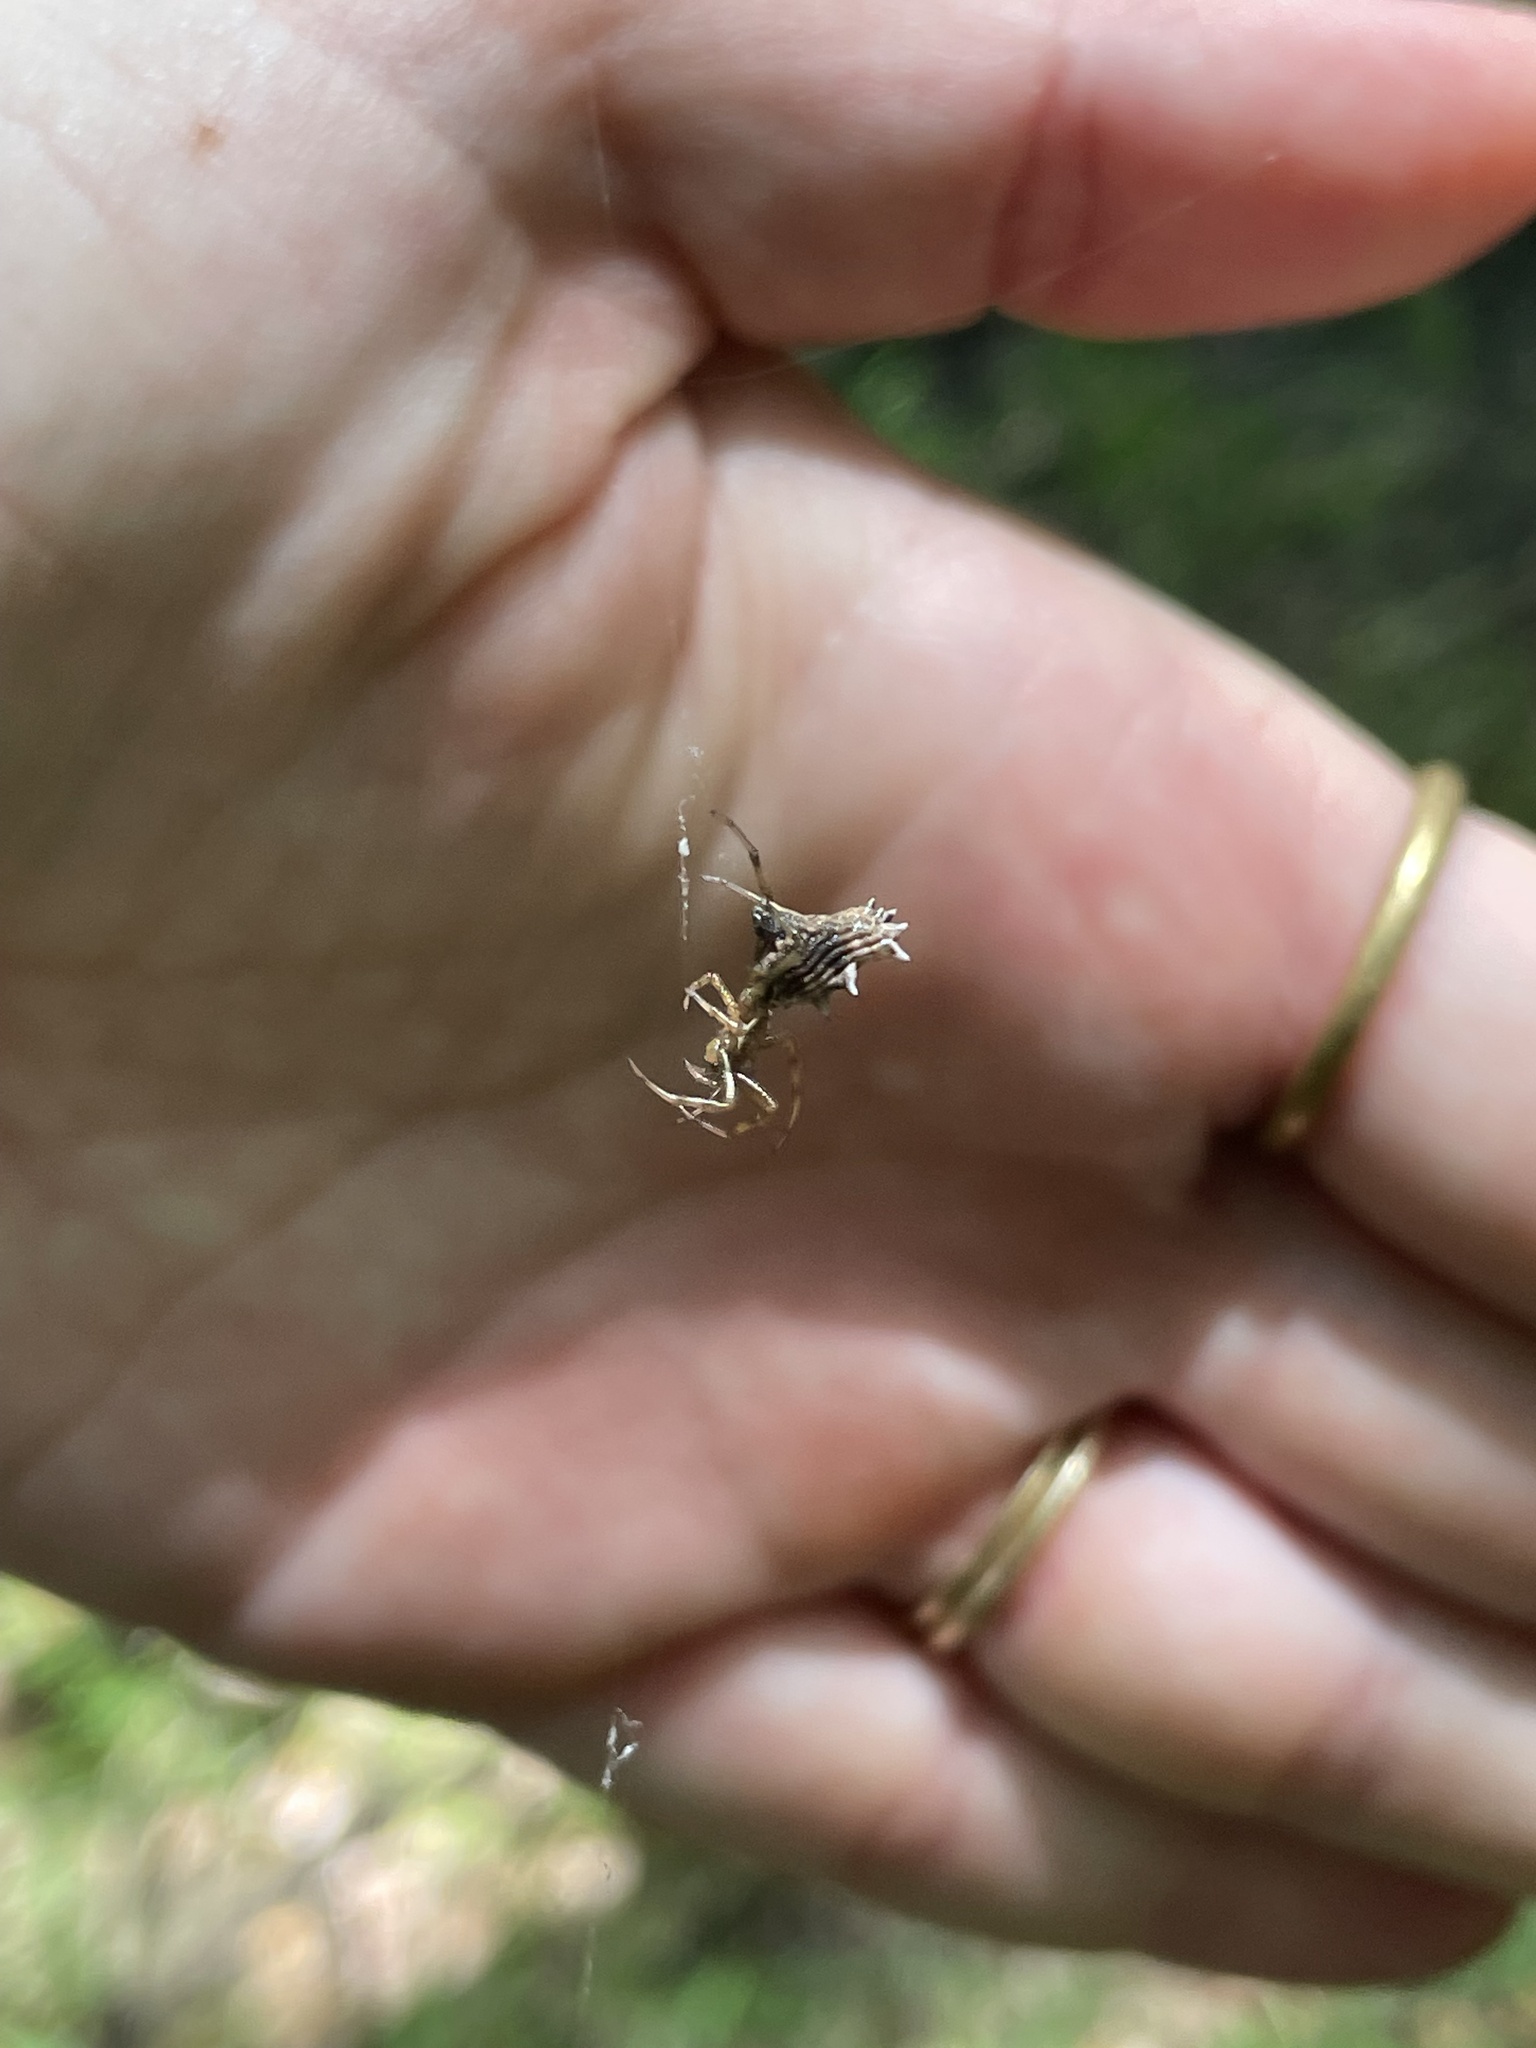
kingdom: Animalia
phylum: Arthropoda
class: Arachnida
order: Araneae
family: Araneidae
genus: Micrathena
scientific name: Micrathena gracilis
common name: Orb weavers
